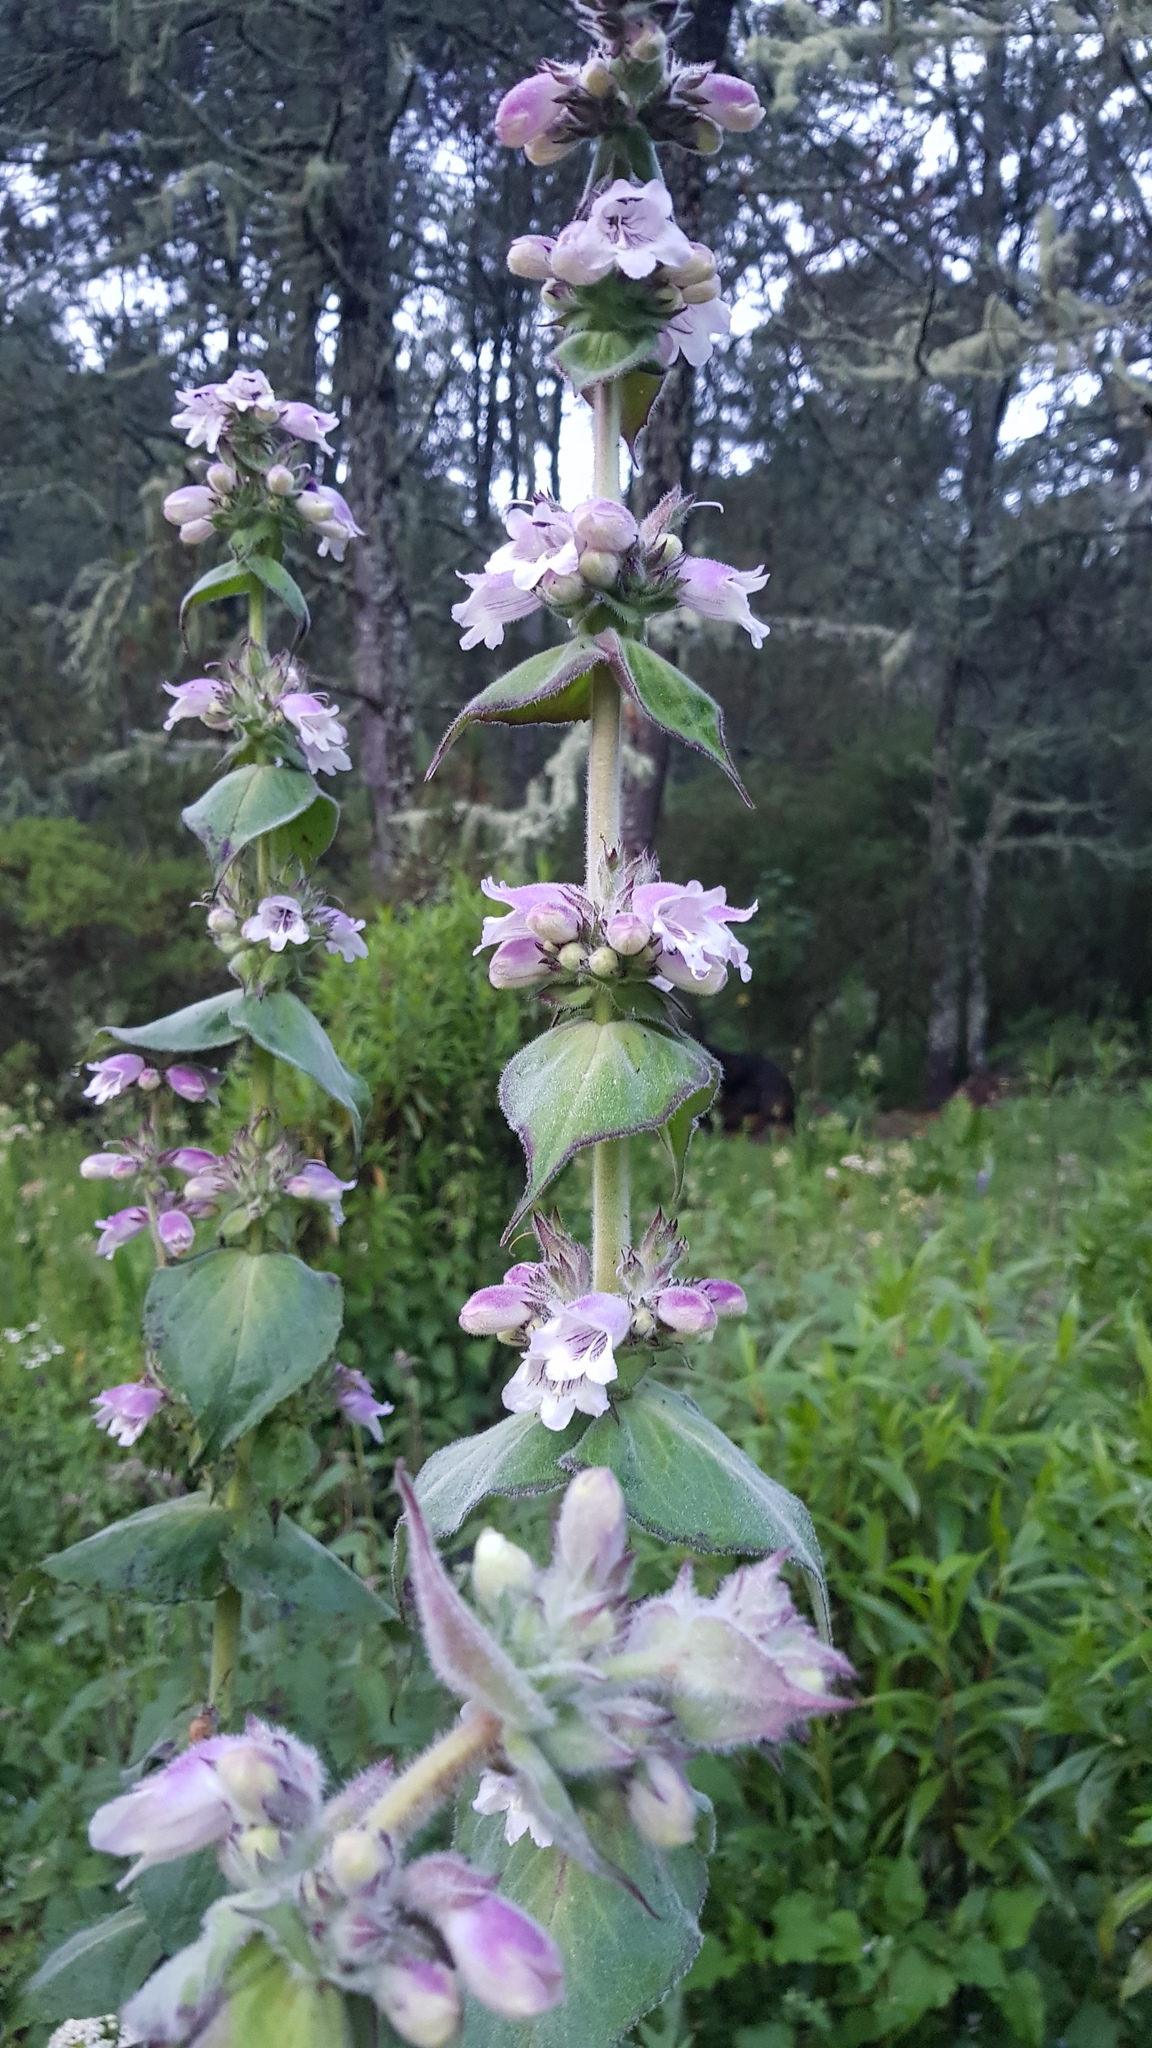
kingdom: Plantae
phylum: Tracheophyta
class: Magnoliopsida
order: Lamiales
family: Plantaginaceae
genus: Penstemon
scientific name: Penstemon perfoliatus
